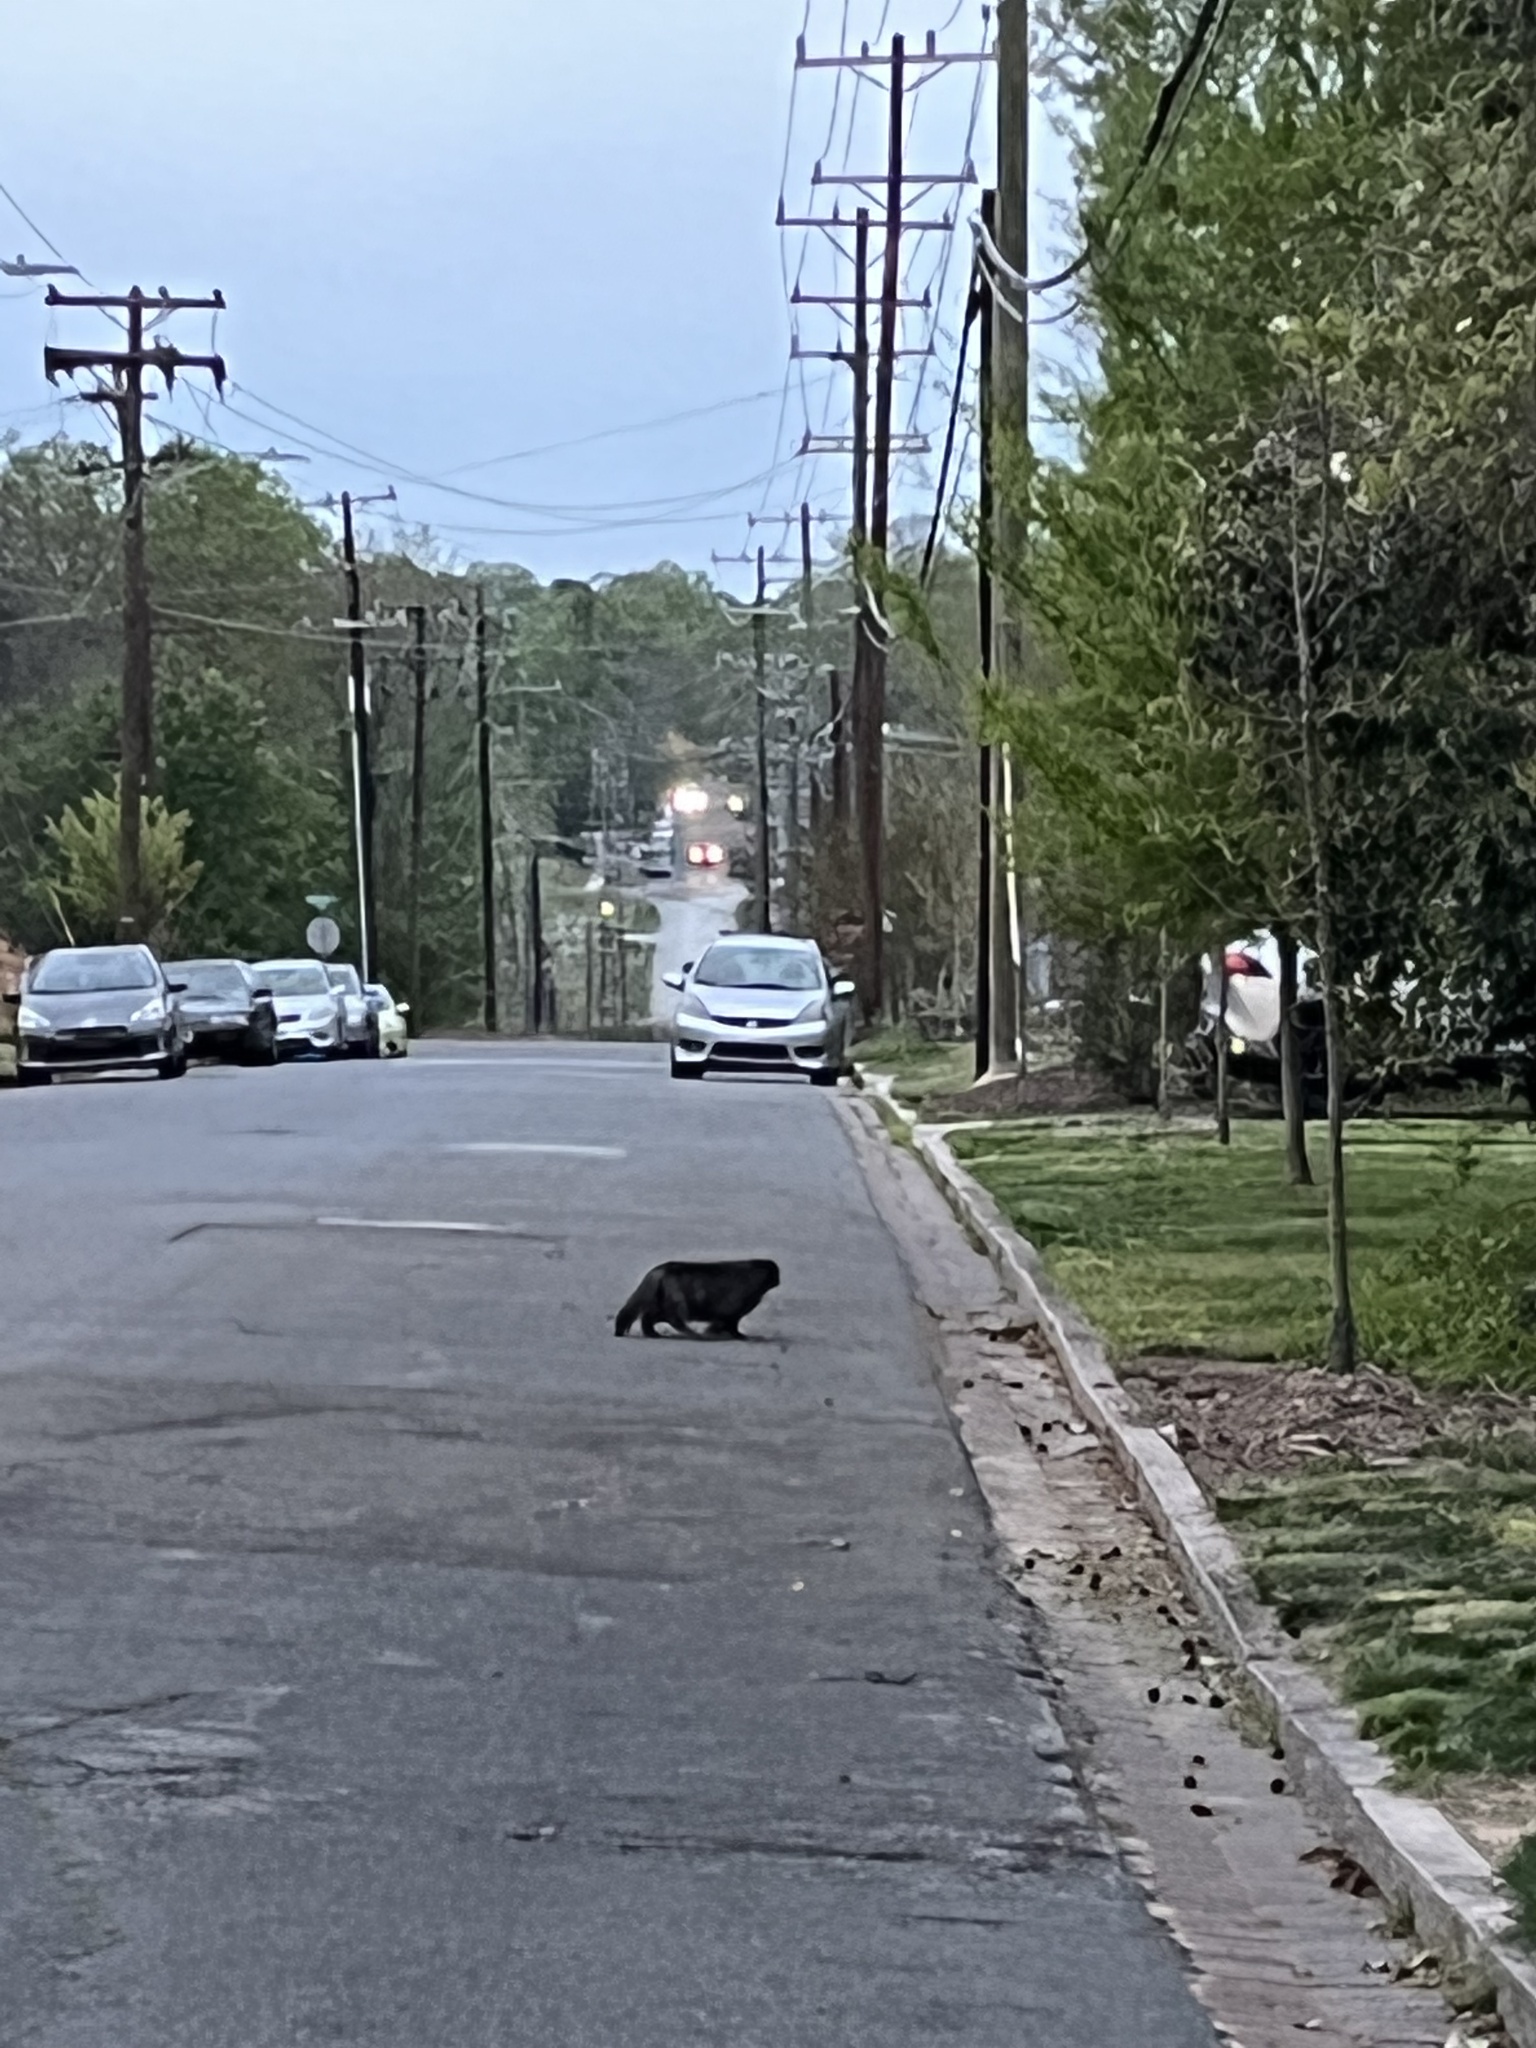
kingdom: Animalia
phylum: Chordata
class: Mammalia
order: Carnivora
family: Felidae
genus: Felis
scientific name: Felis catus
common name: Domestic cat
